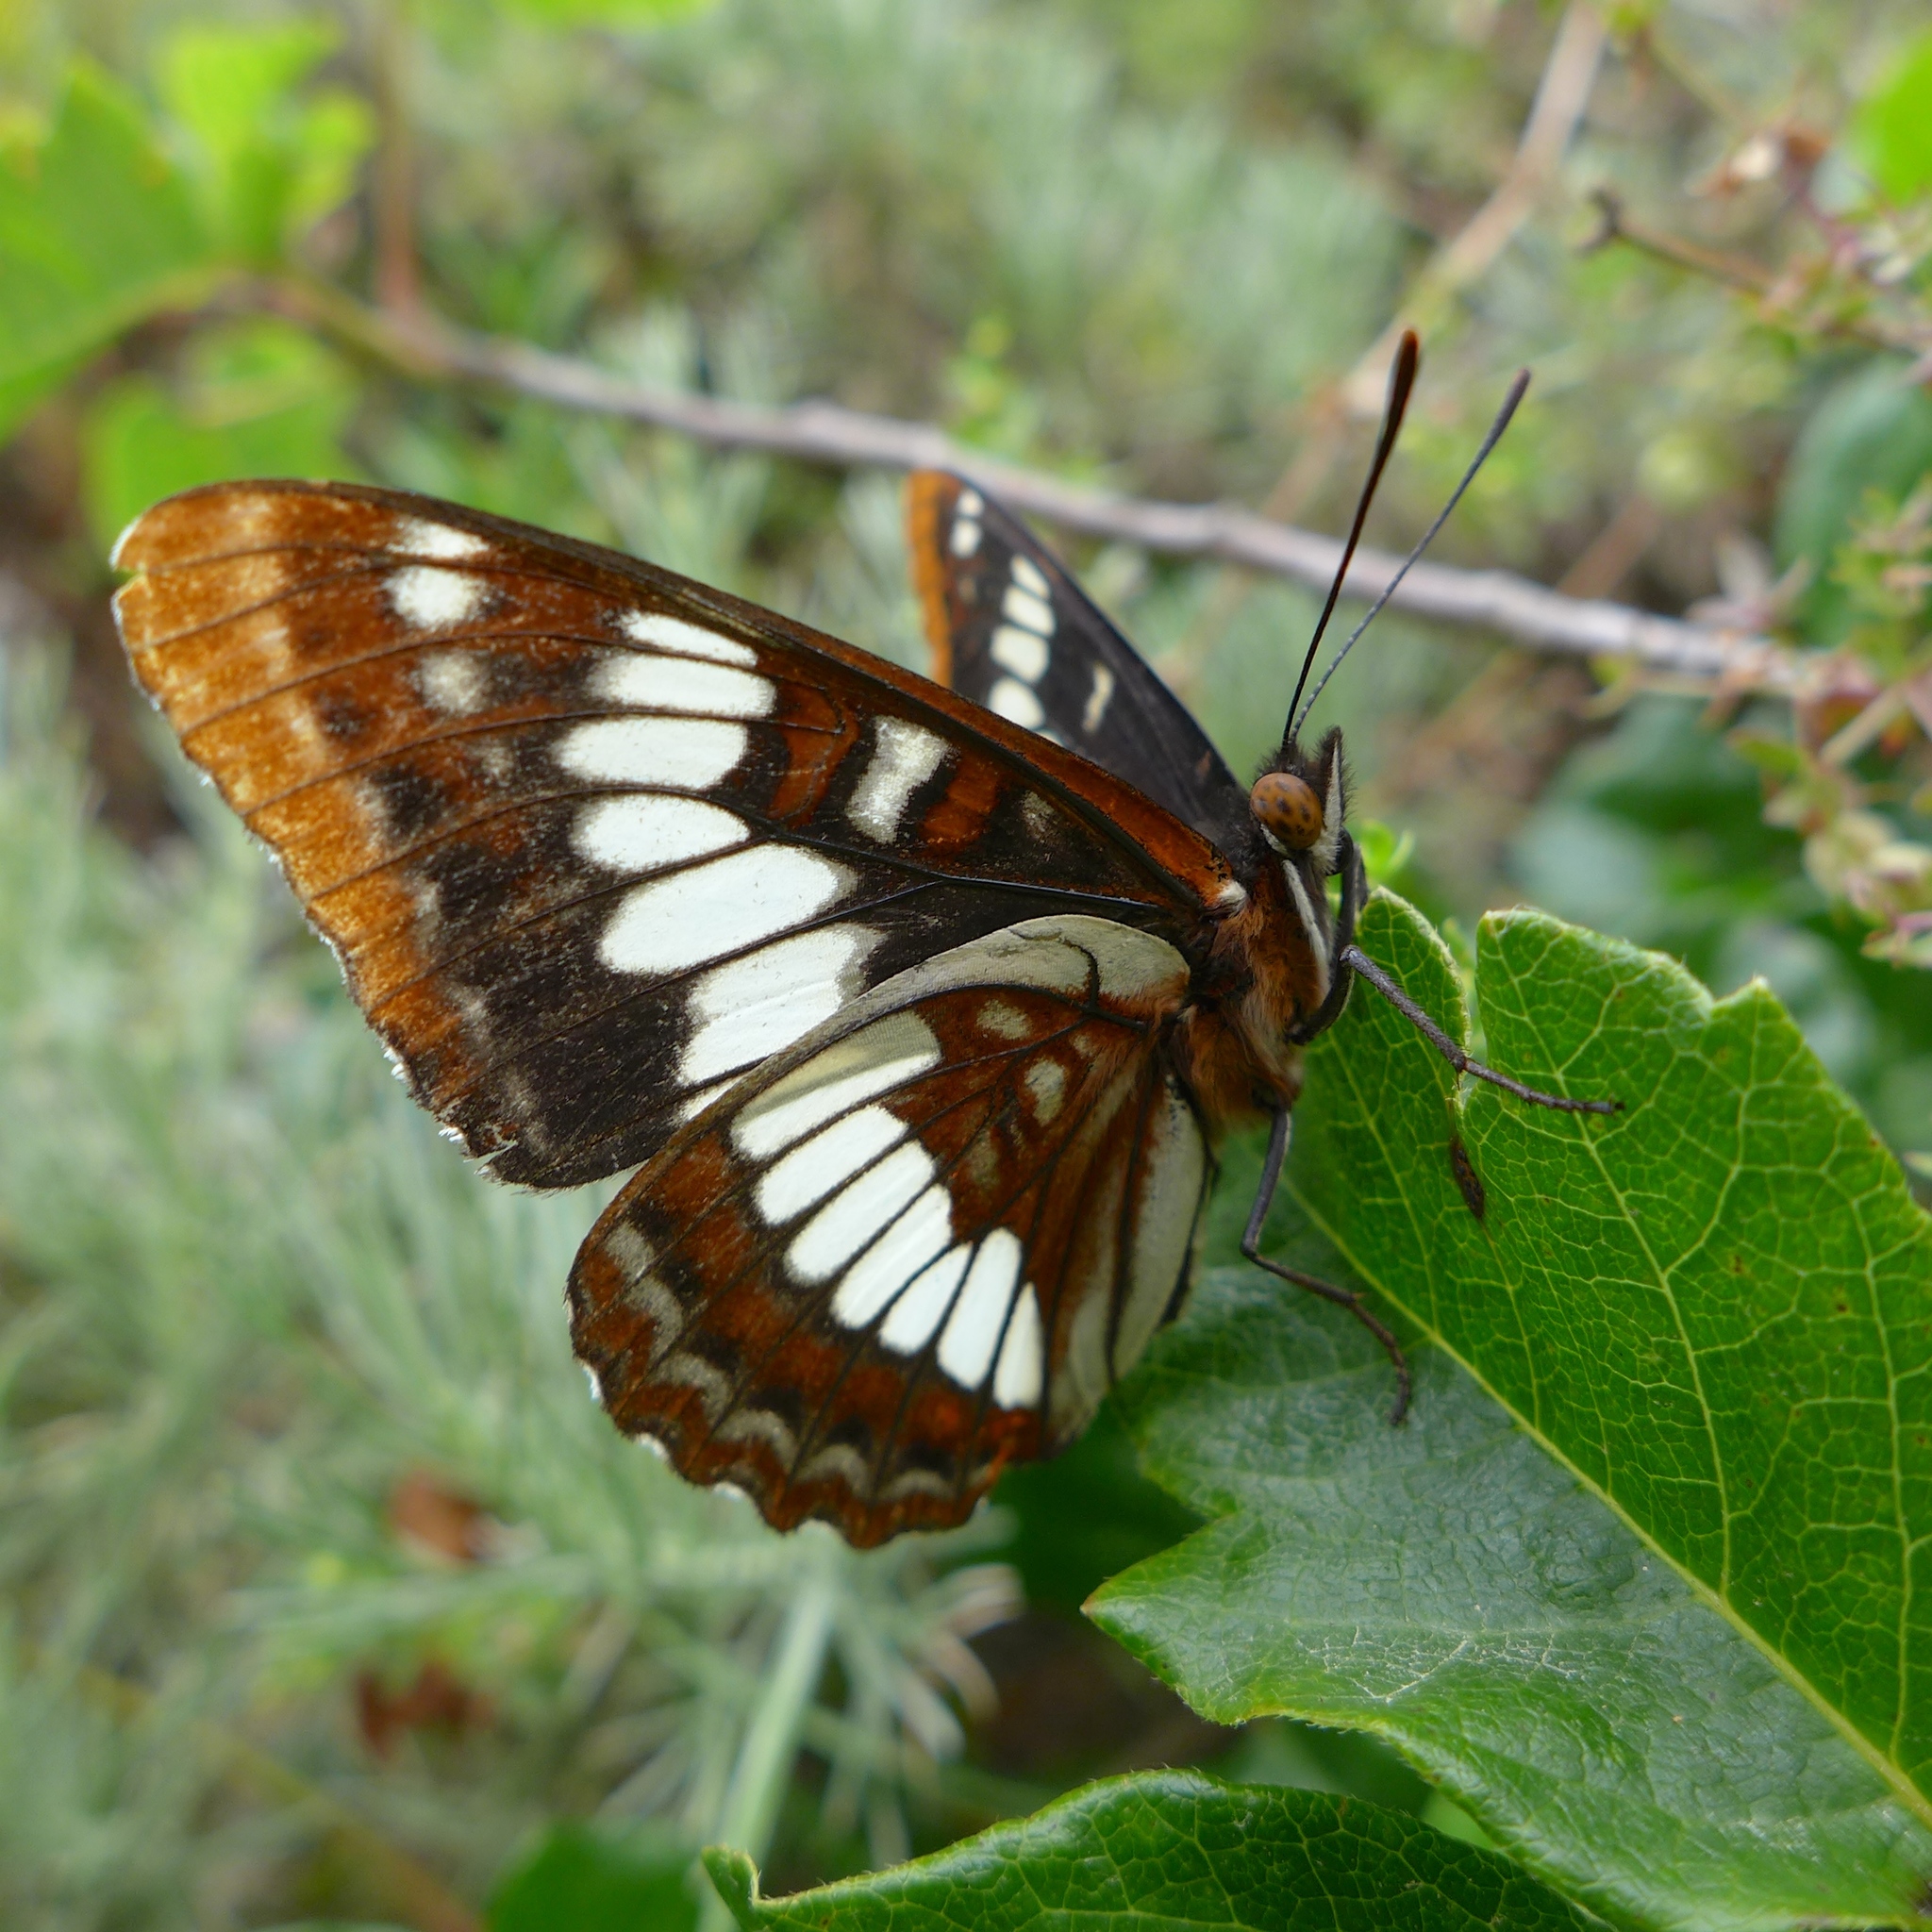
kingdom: Animalia
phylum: Arthropoda
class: Insecta
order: Lepidoptera
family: Nymphalidae
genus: Limenitis
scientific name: Limenitis lorquini
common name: Lorquin's admiral
